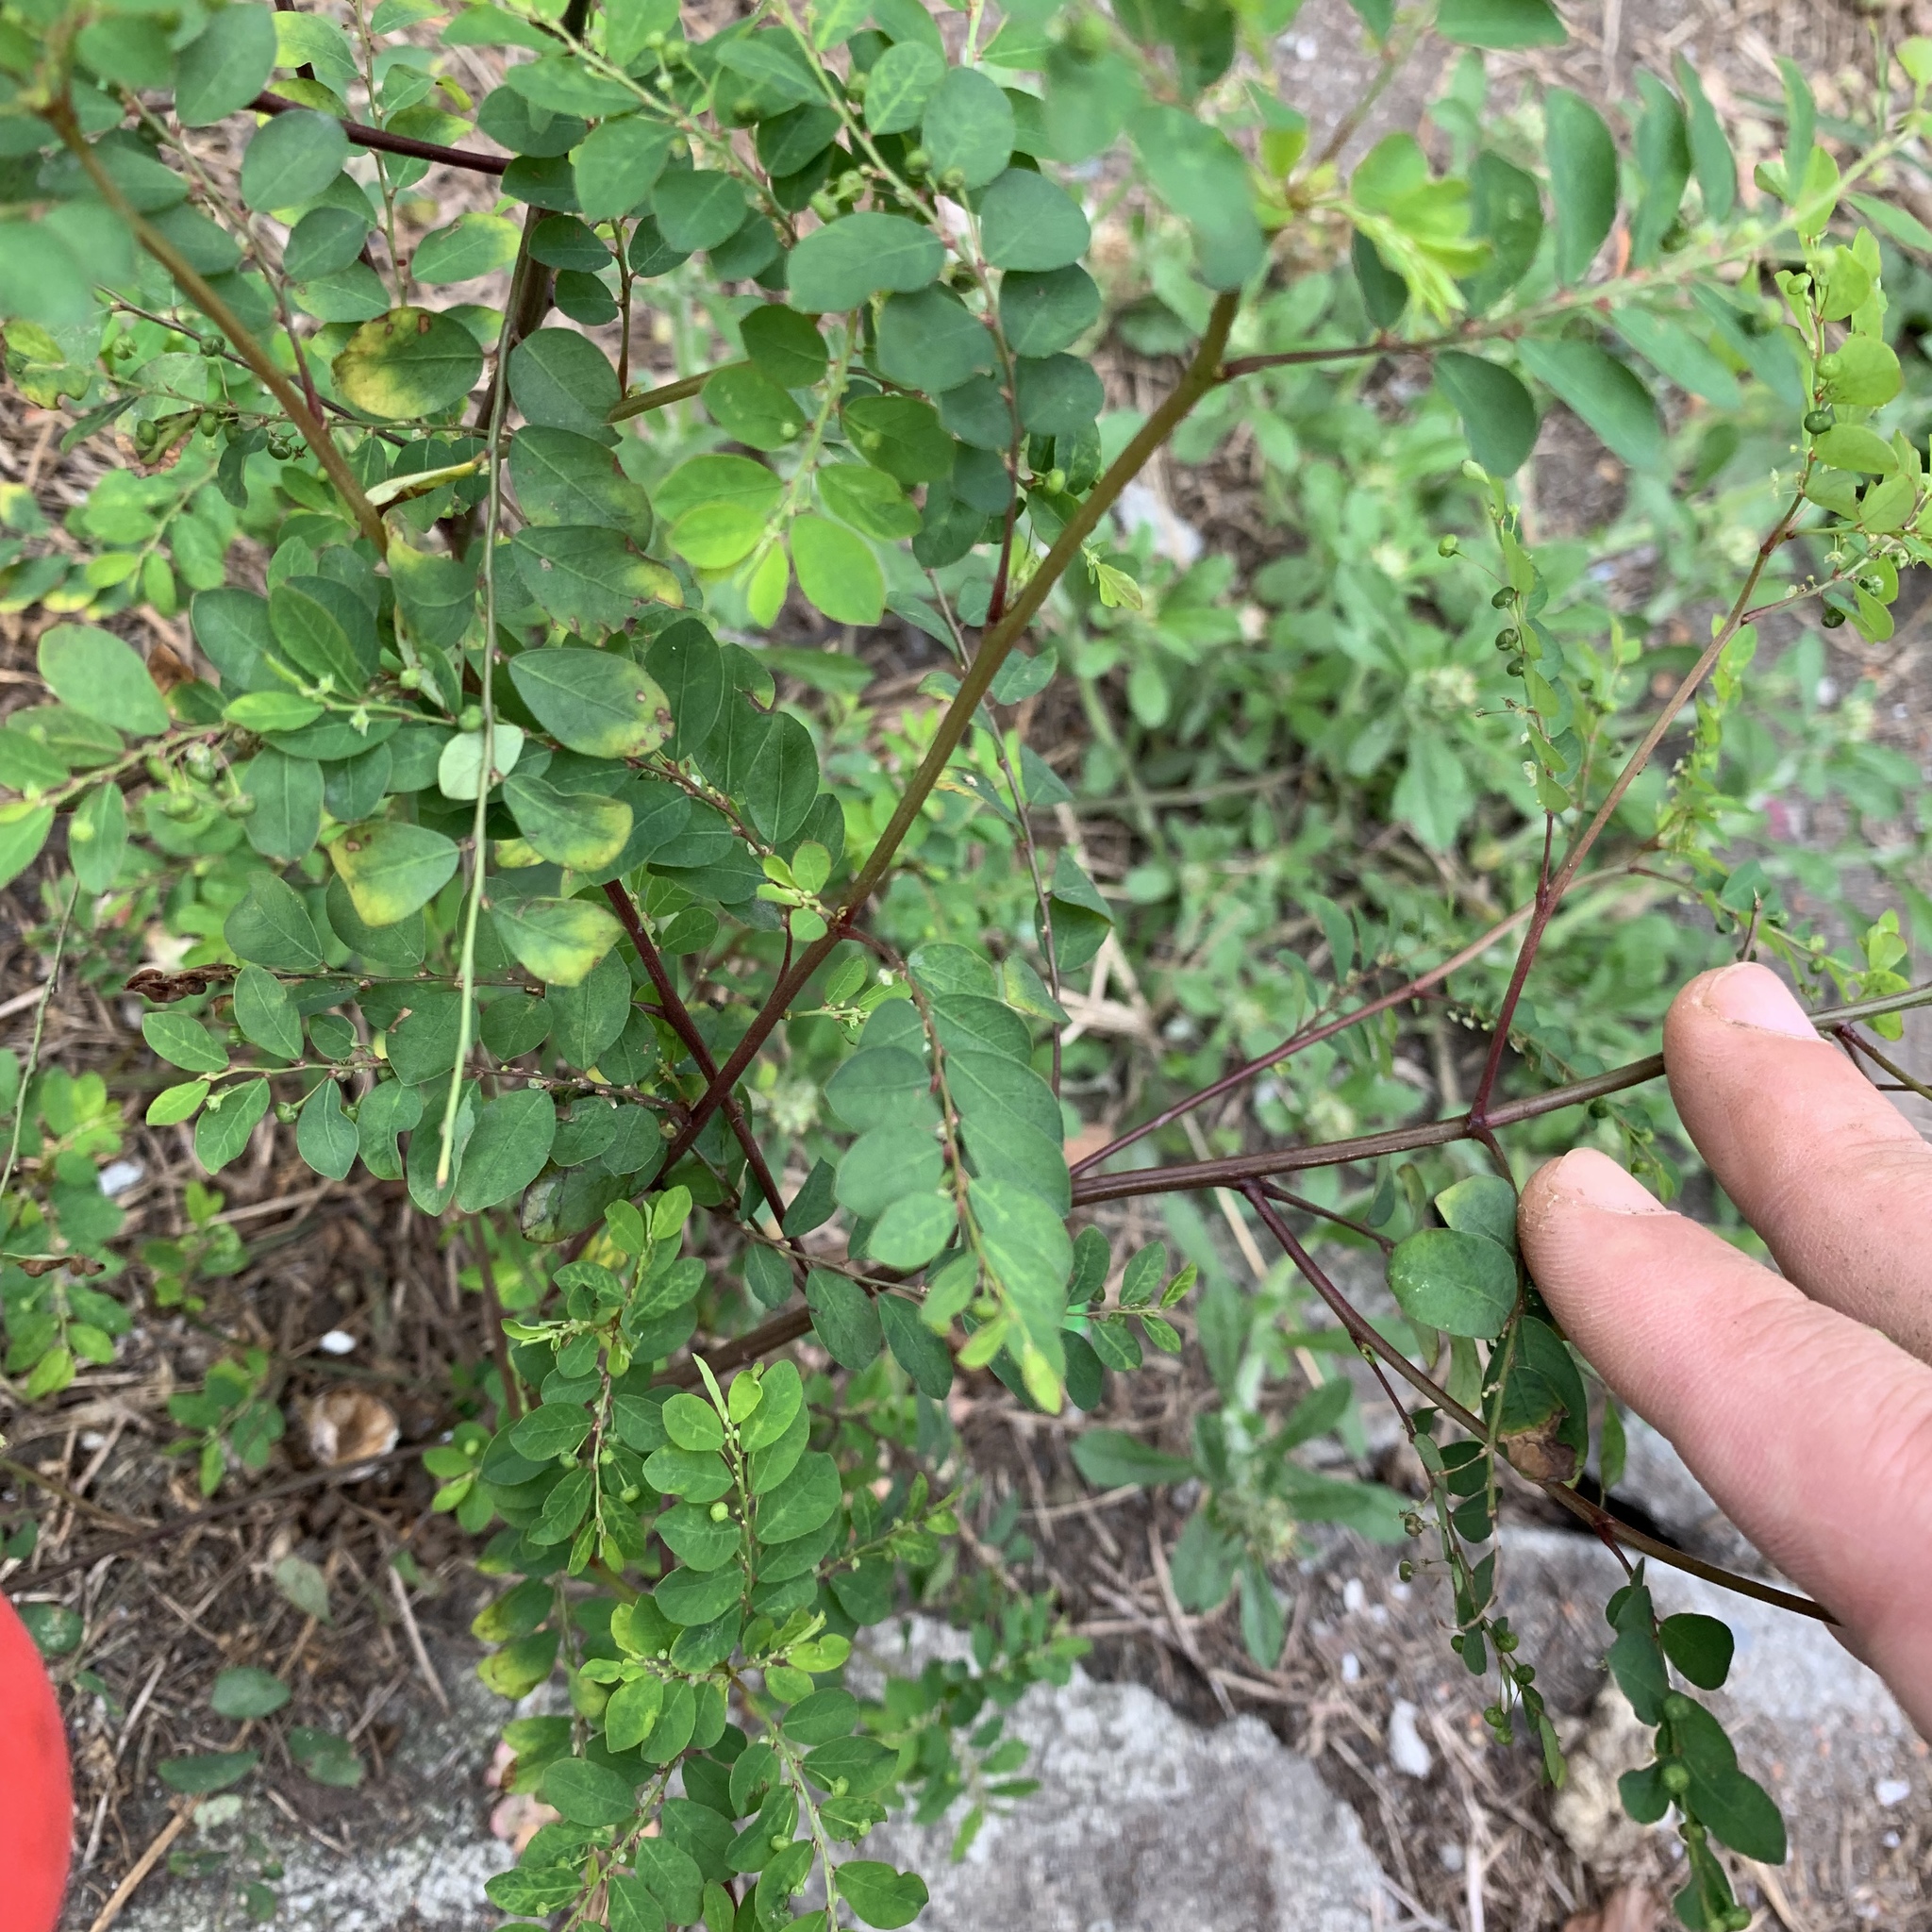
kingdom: Plantae
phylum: Tracheophyta
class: Magnoliopsida
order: Malpighiales
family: Phyllanthaceae
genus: Phyllanthus
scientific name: Phyllanthus tenellus
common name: Mascarene island leaf-flower
